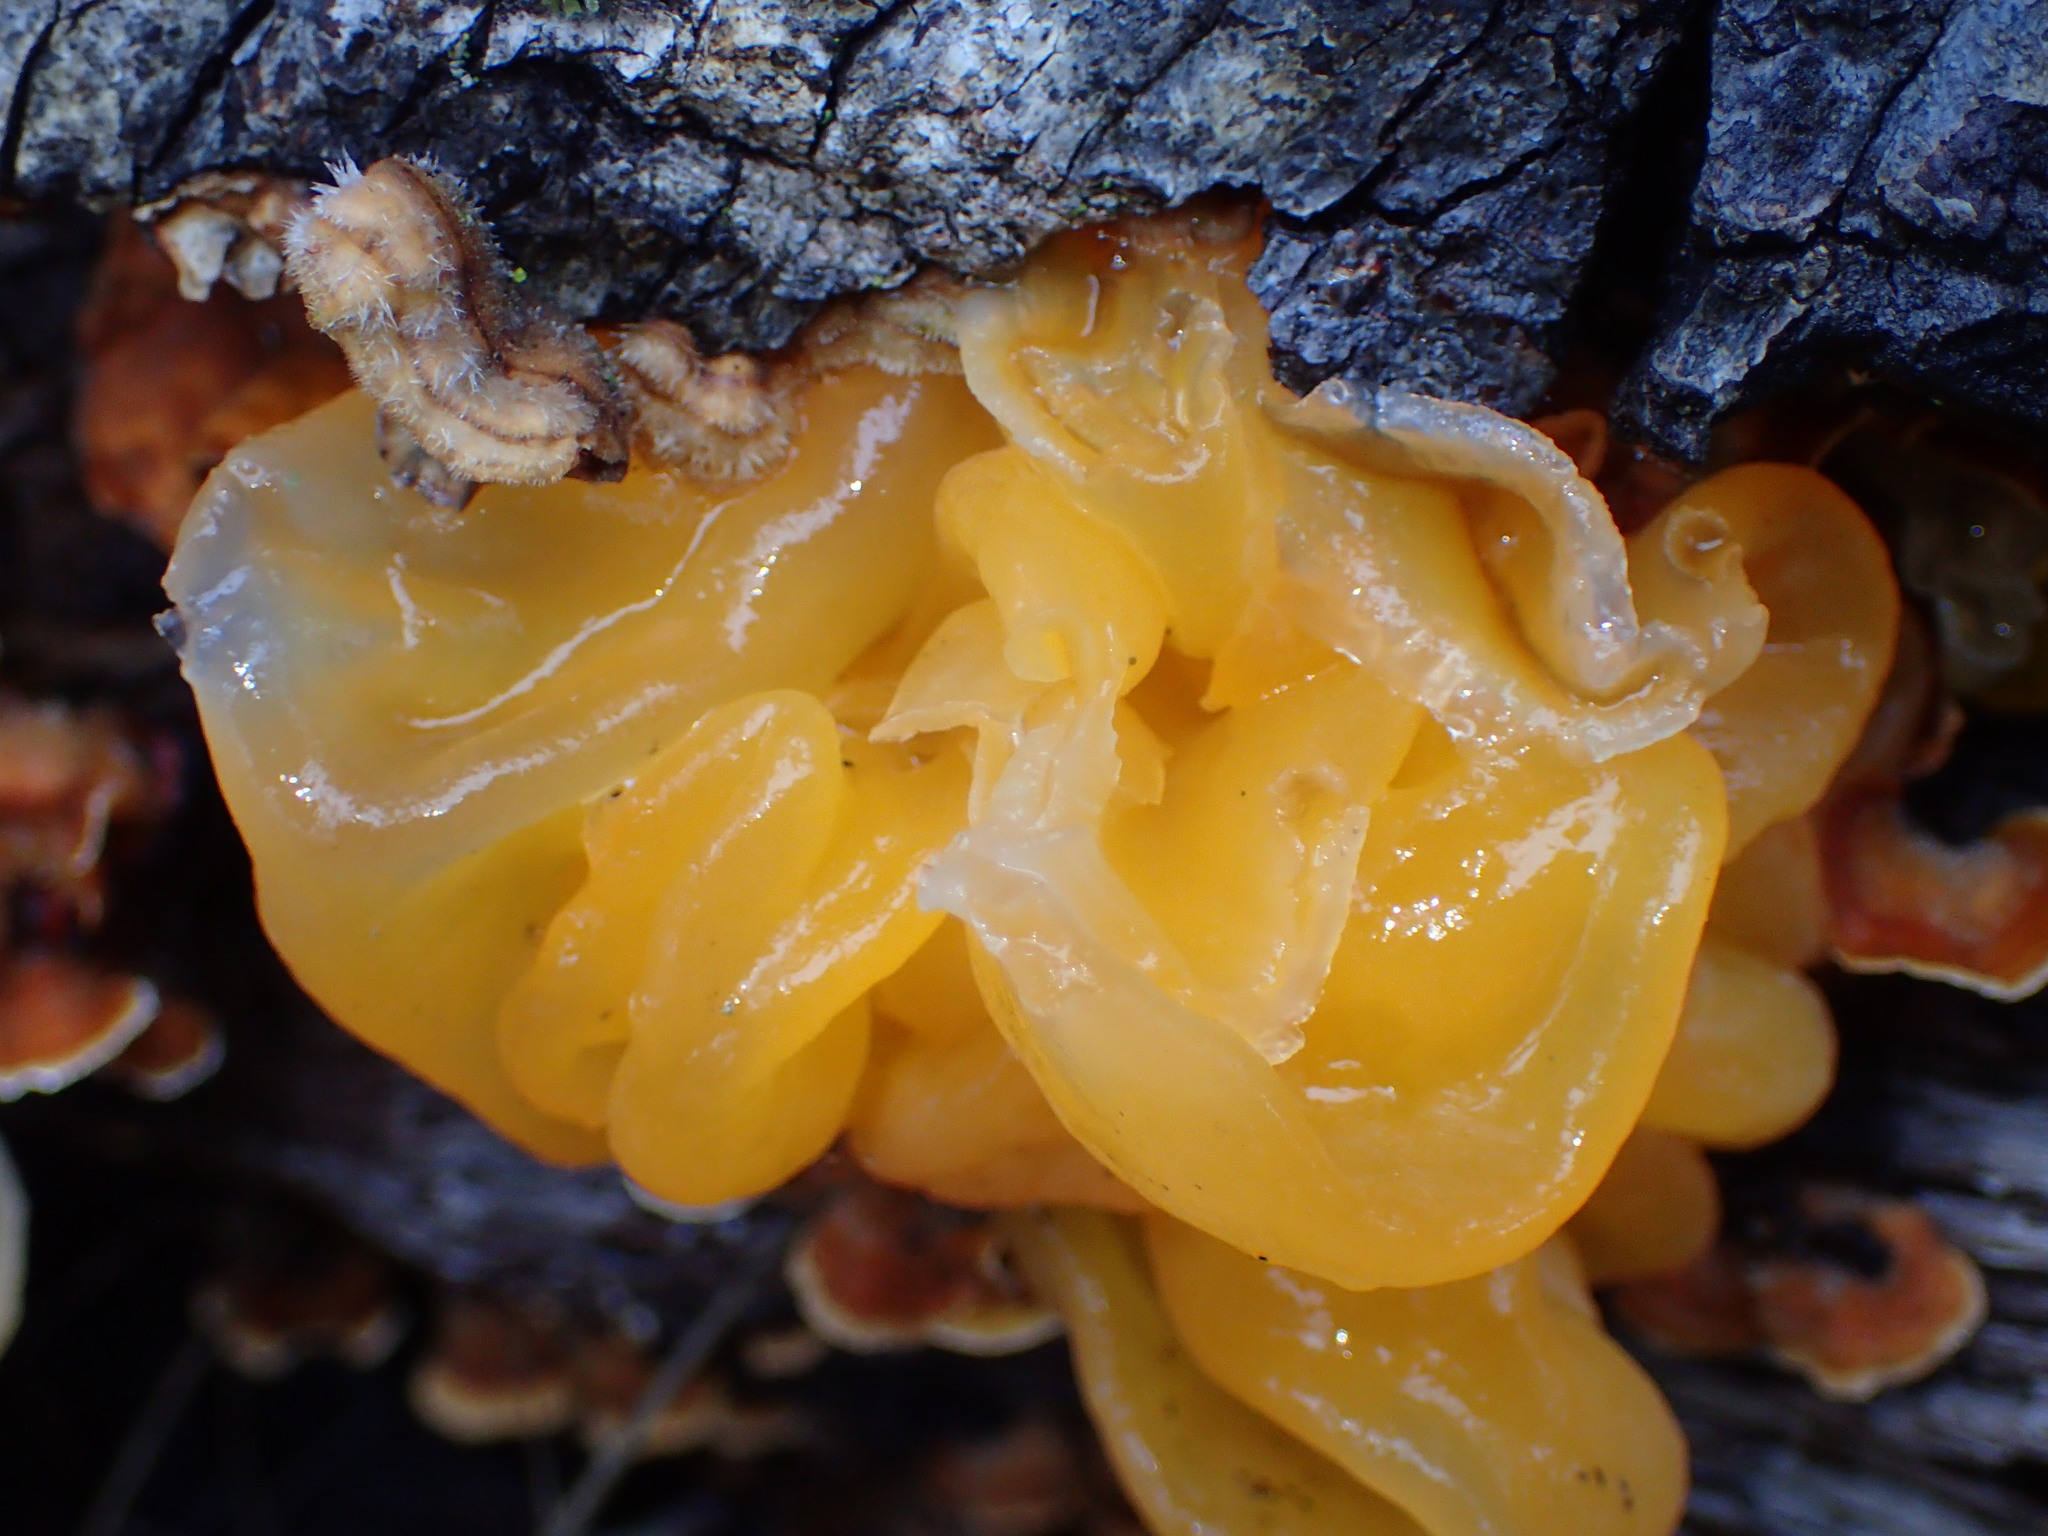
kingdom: Fungi
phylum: Basidiomycota
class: Tremellomycetes
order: Tremellales
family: Naemateliaceae
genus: Naematelia
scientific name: Naematelia aurantia
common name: Golden ear
